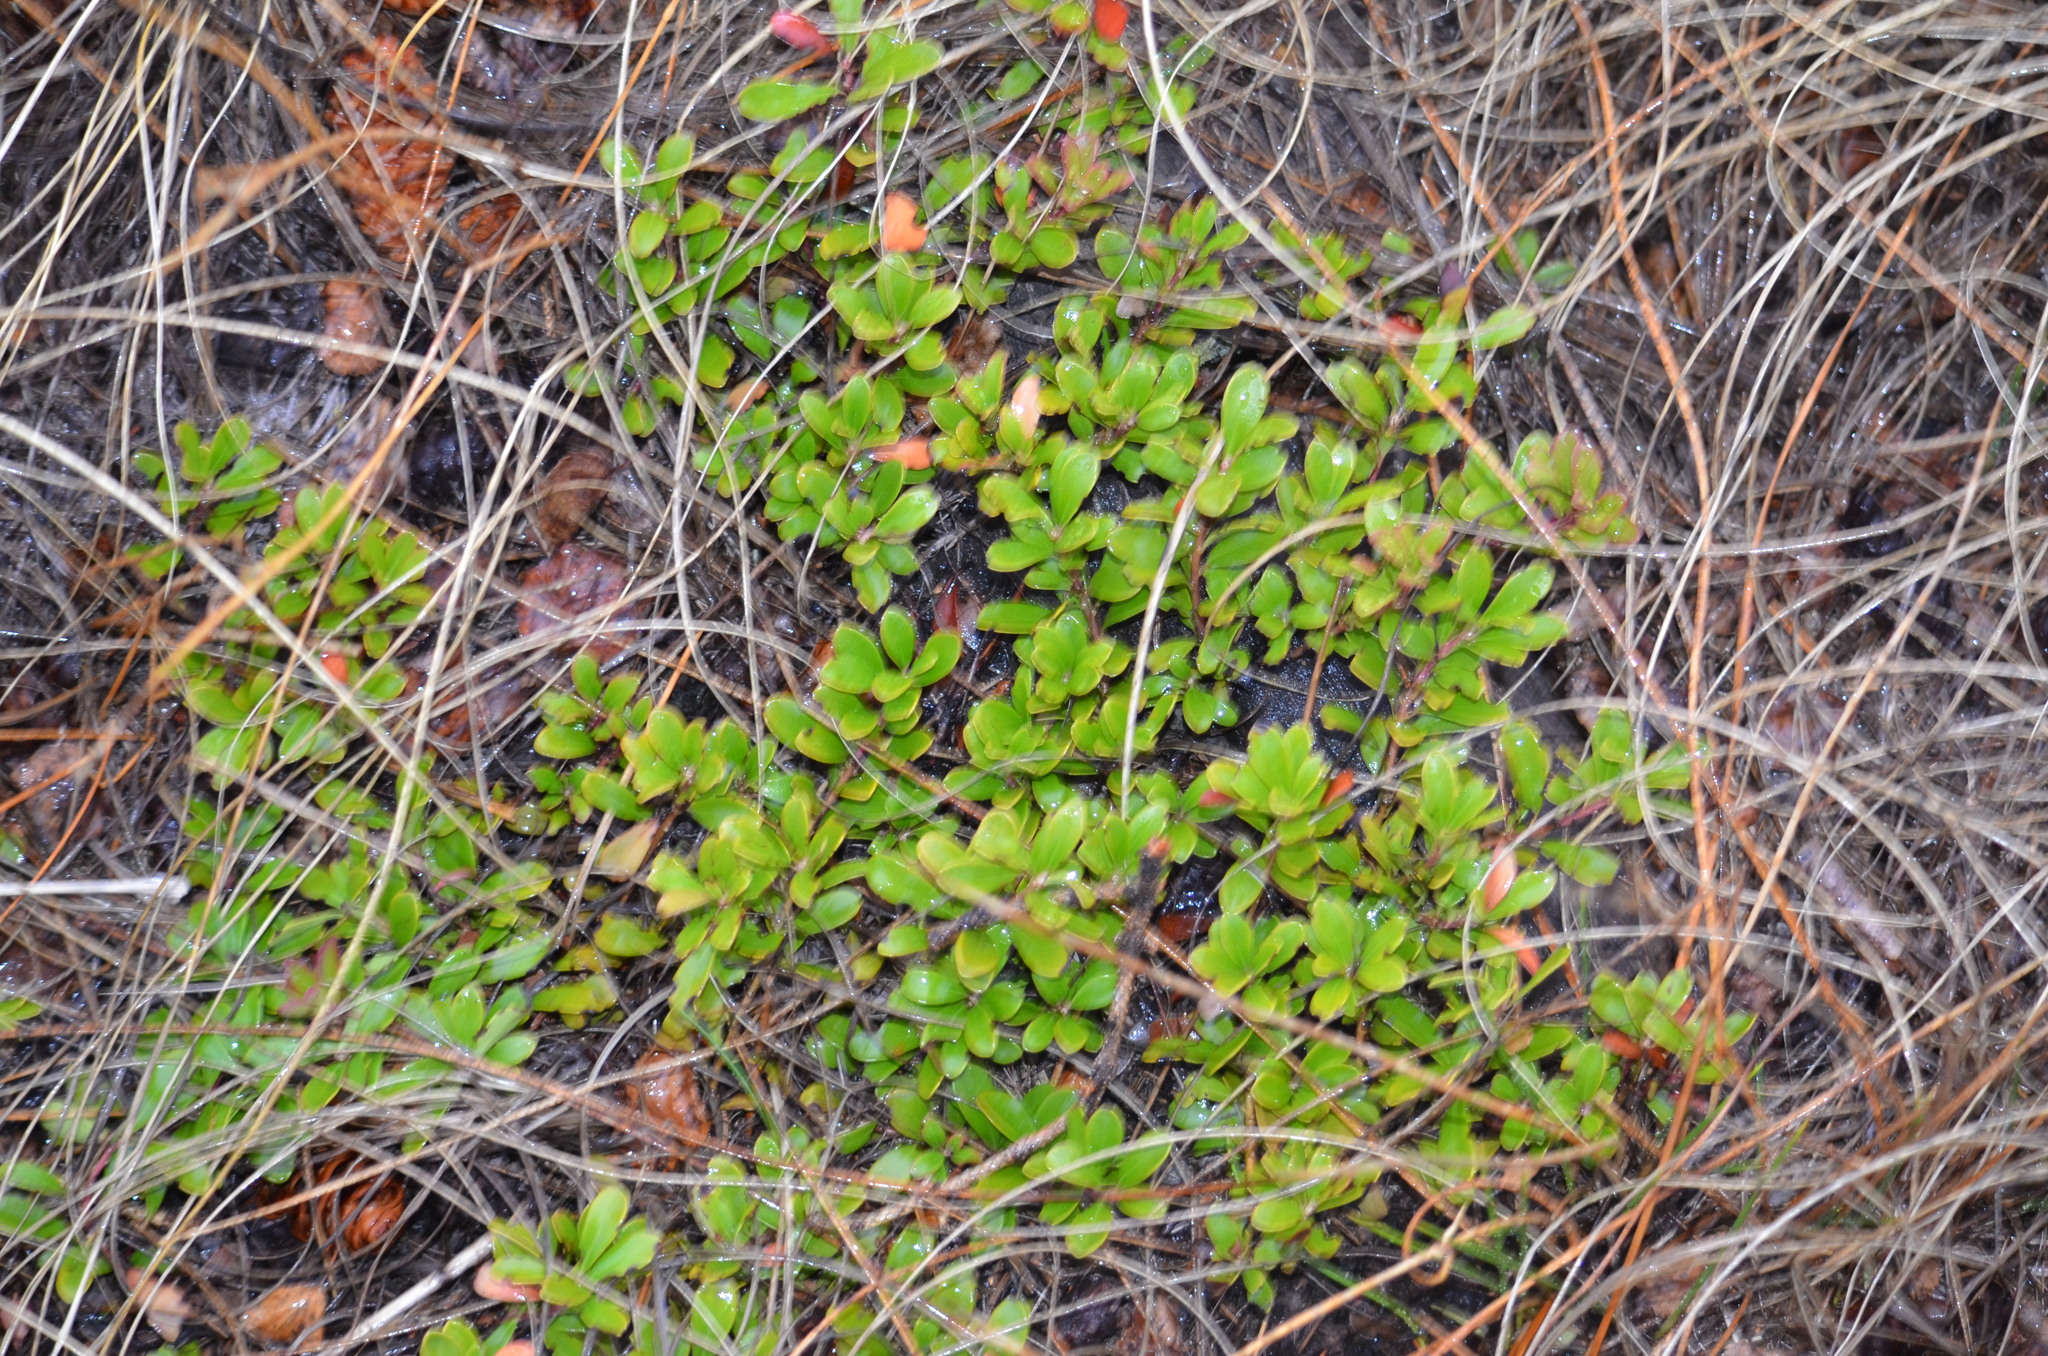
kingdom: Plantae
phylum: Tracheophyta
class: Magnoliopsida
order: Ericales
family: Ericaceae
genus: Arctostaphylos
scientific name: Arctostaphylos uva-ursi
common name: Bearberry
